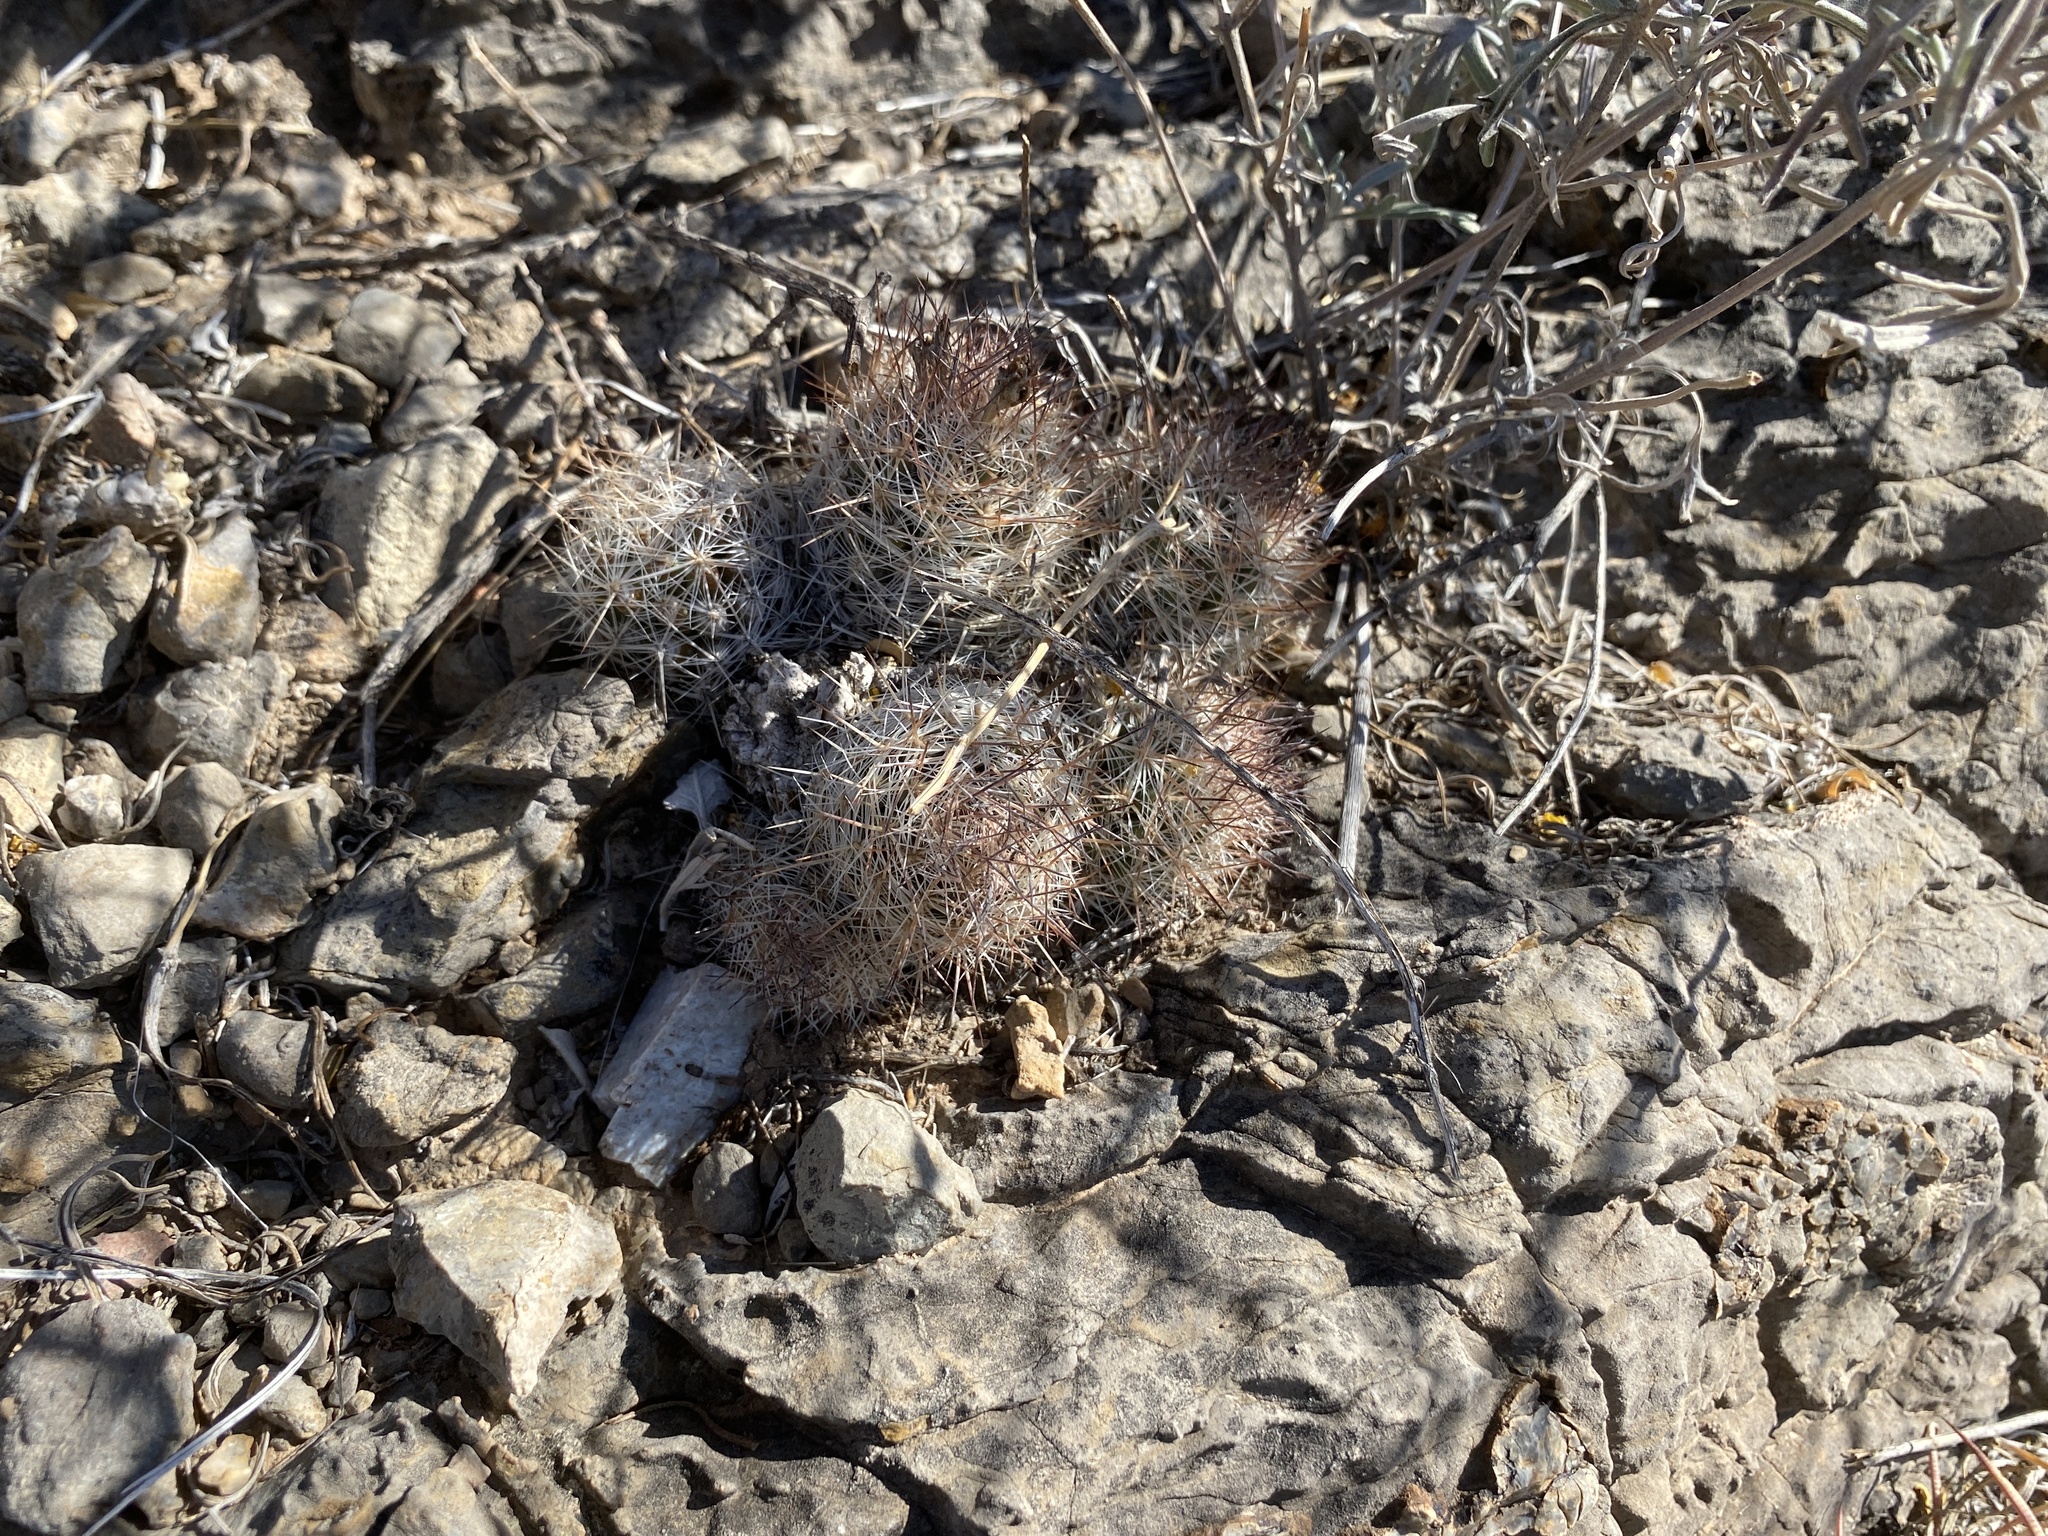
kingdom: Plantae
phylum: Tracheophyta
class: Magnoliopsida
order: Caryophyllales
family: Cactaceae
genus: Pelecyphora
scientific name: Pelecyphora tuberculosa
